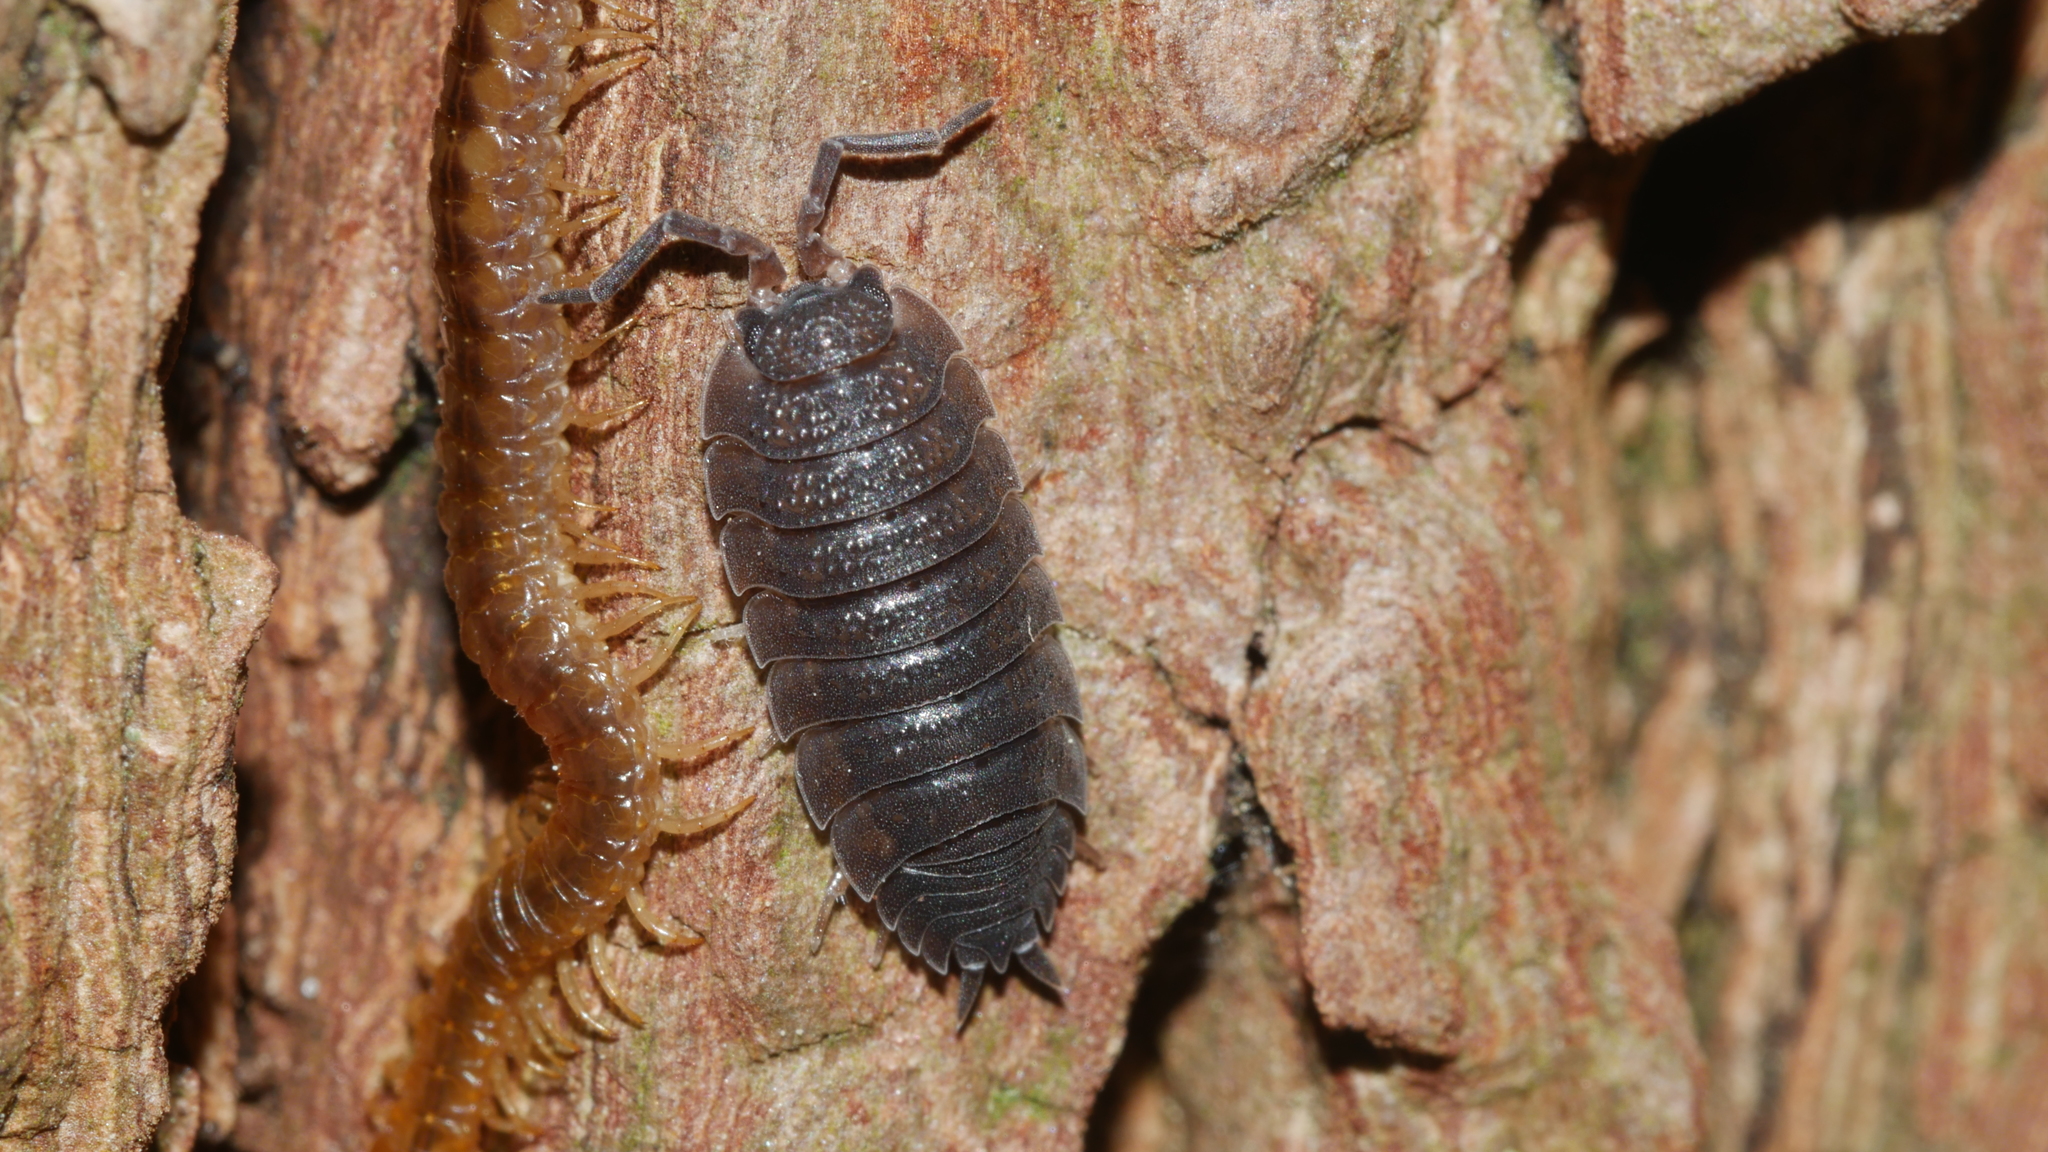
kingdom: Animalia
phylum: Arthropoda
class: Malacostraca
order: Isopoda
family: Porcellionidae
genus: Porcellio
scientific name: Porcellio scaber
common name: Common rough woodlouse
